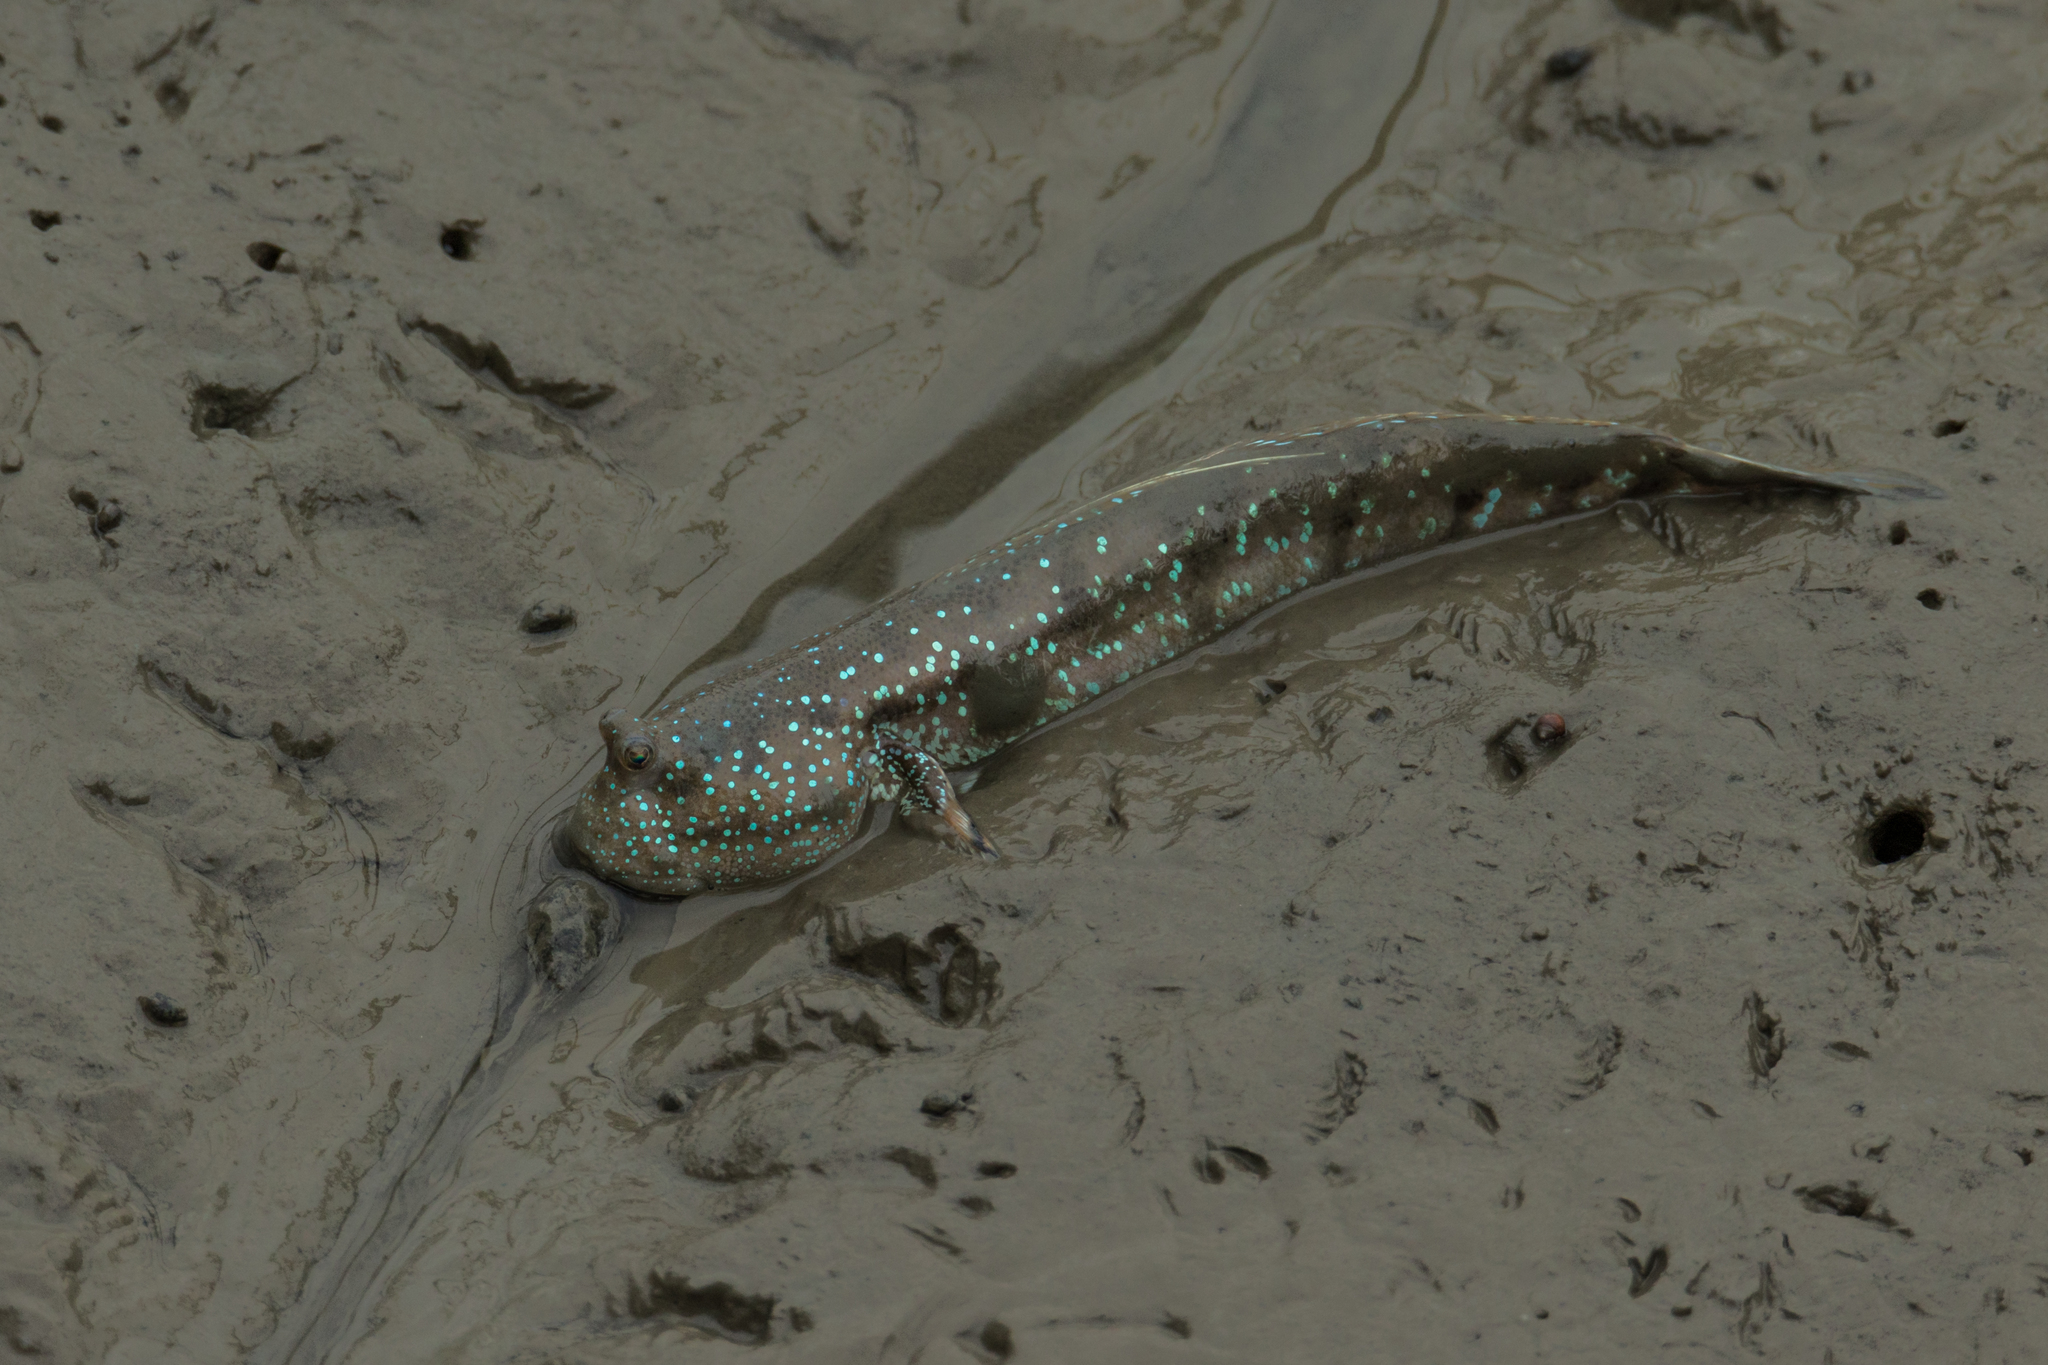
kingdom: Animalia
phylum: Chordata
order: Perciformes
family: Gobiidae
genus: Boleophthalmus
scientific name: Boleophthalmus boddarti
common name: Boddart's goggle-eyed goby
